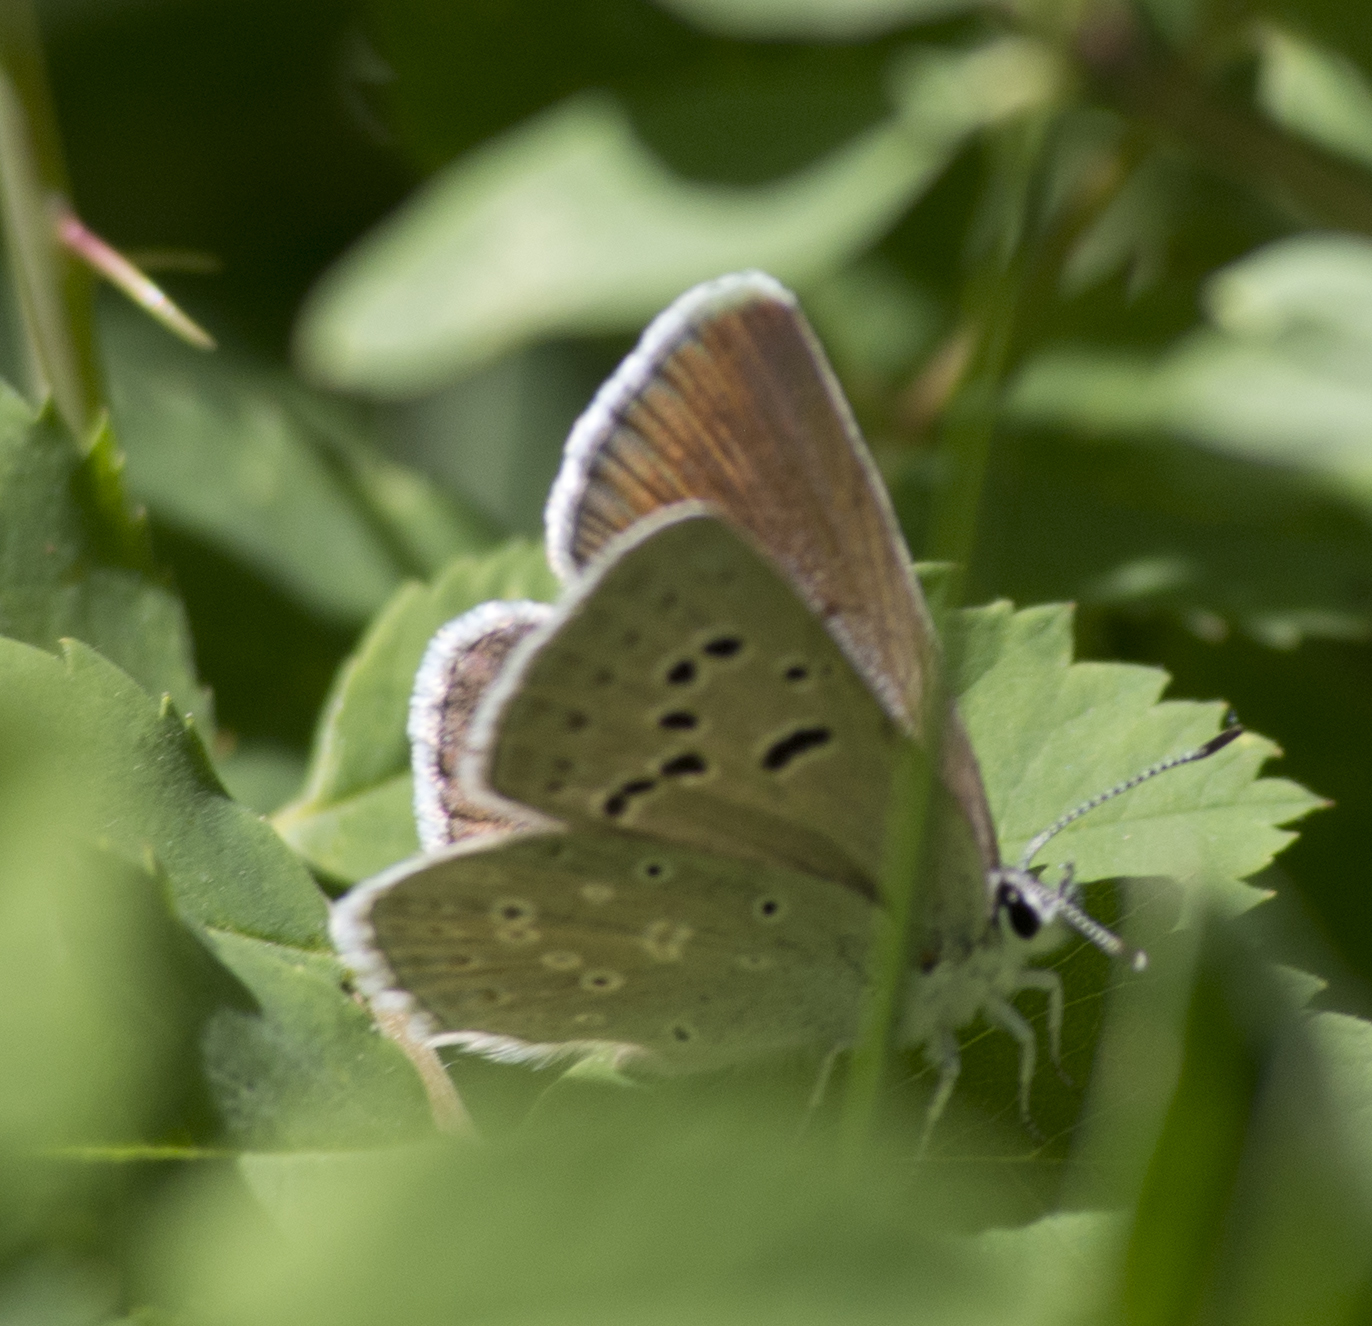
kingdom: Animalia
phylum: Arthropoda
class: Insecta
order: Lepidoptera
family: Lycaenidae
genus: Icaricia
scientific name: Icaricia icarioides
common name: Boisduval's blue
